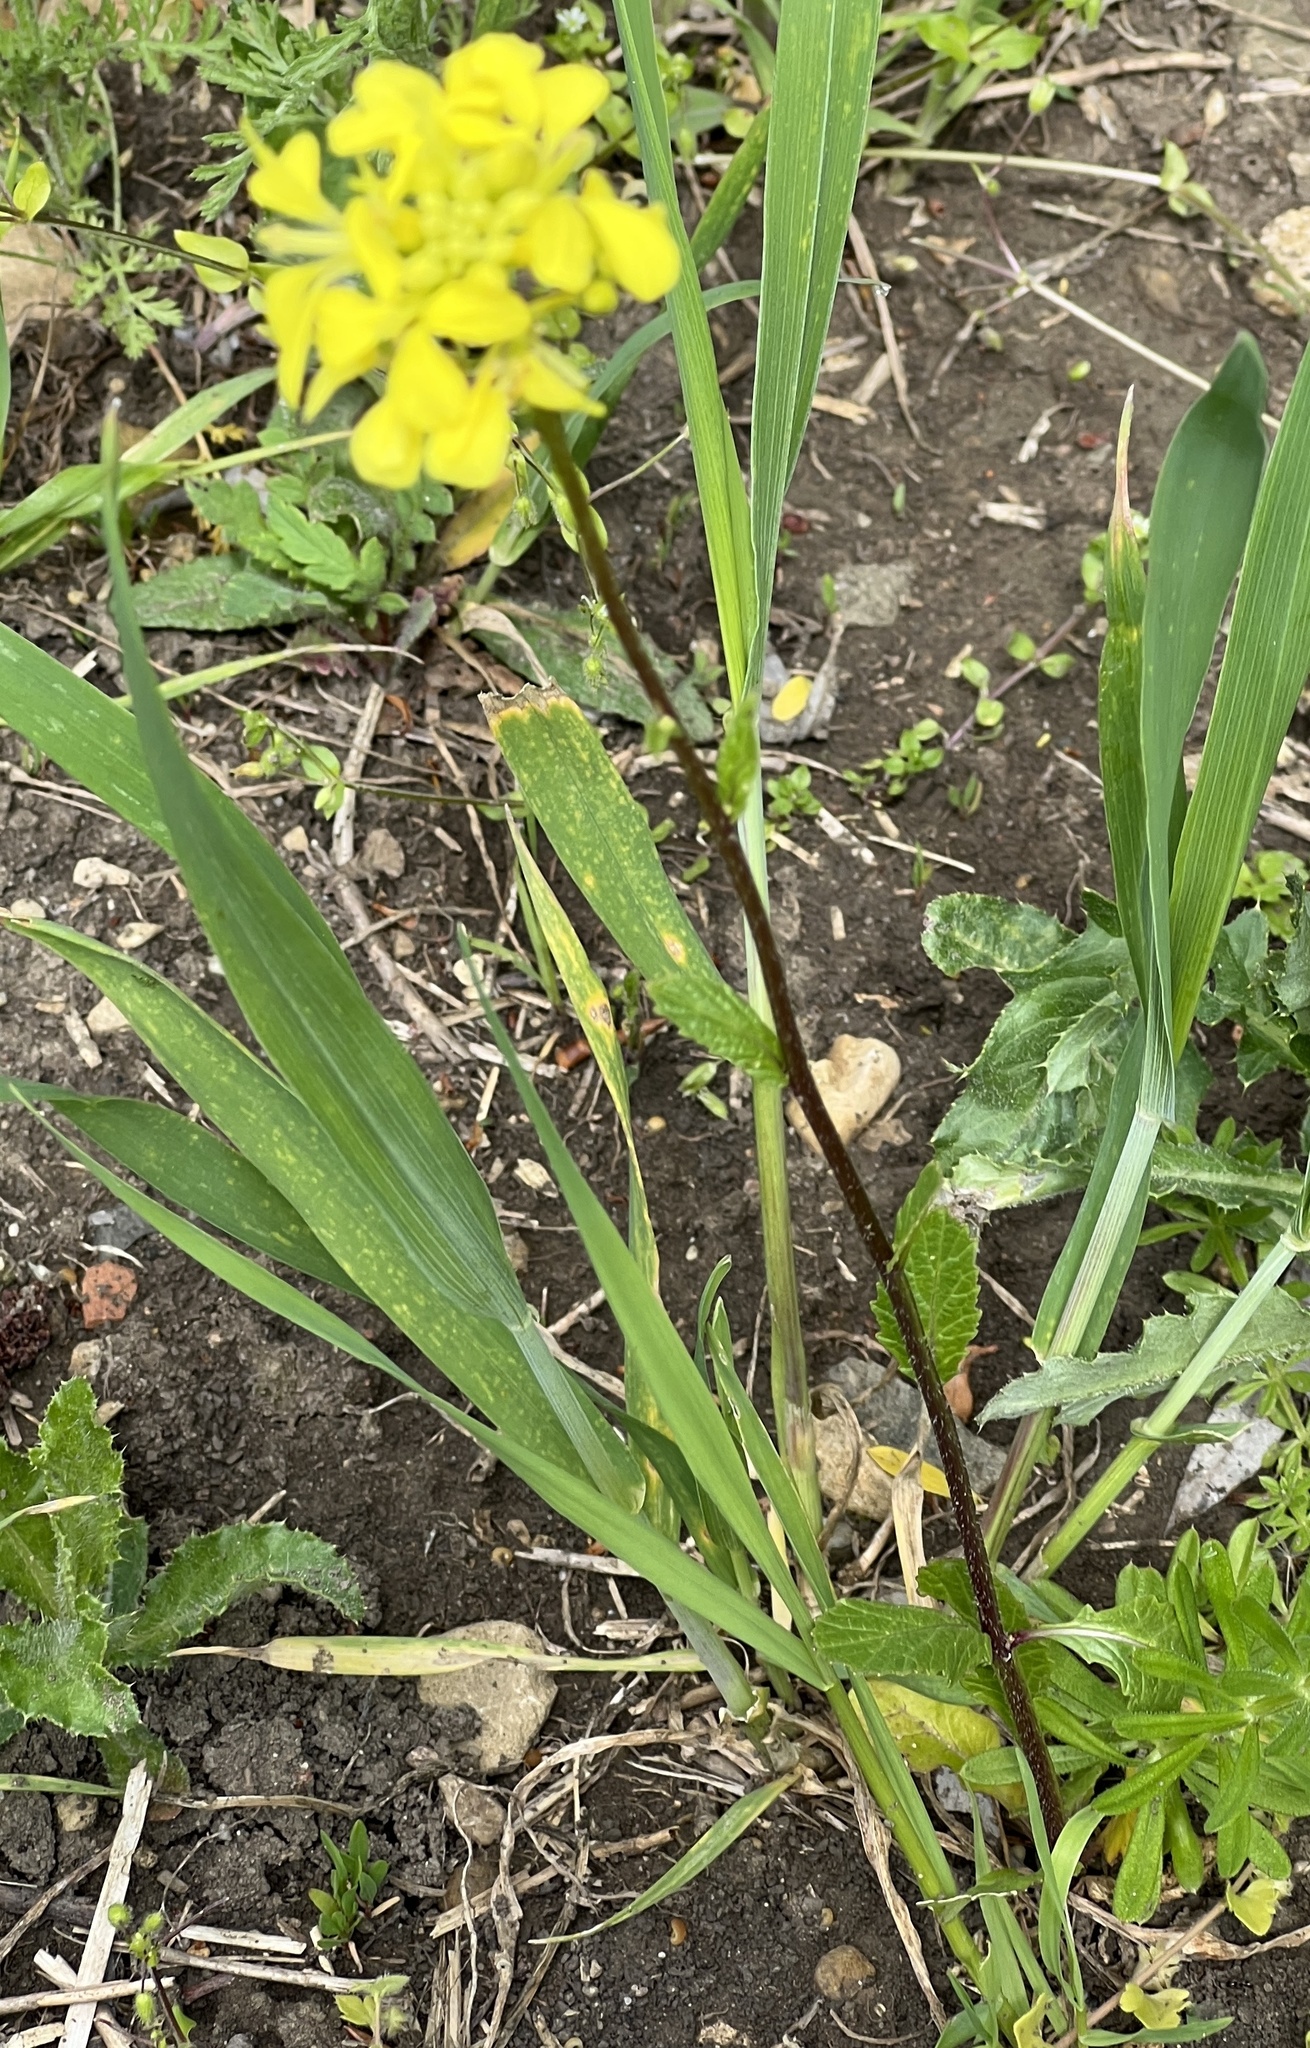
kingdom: Plantae
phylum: Tracheophyta
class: Magnoliopsida
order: Brassicales
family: Brassicaceae
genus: Sinapis
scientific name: Sinapis arvensis
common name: Charlock
